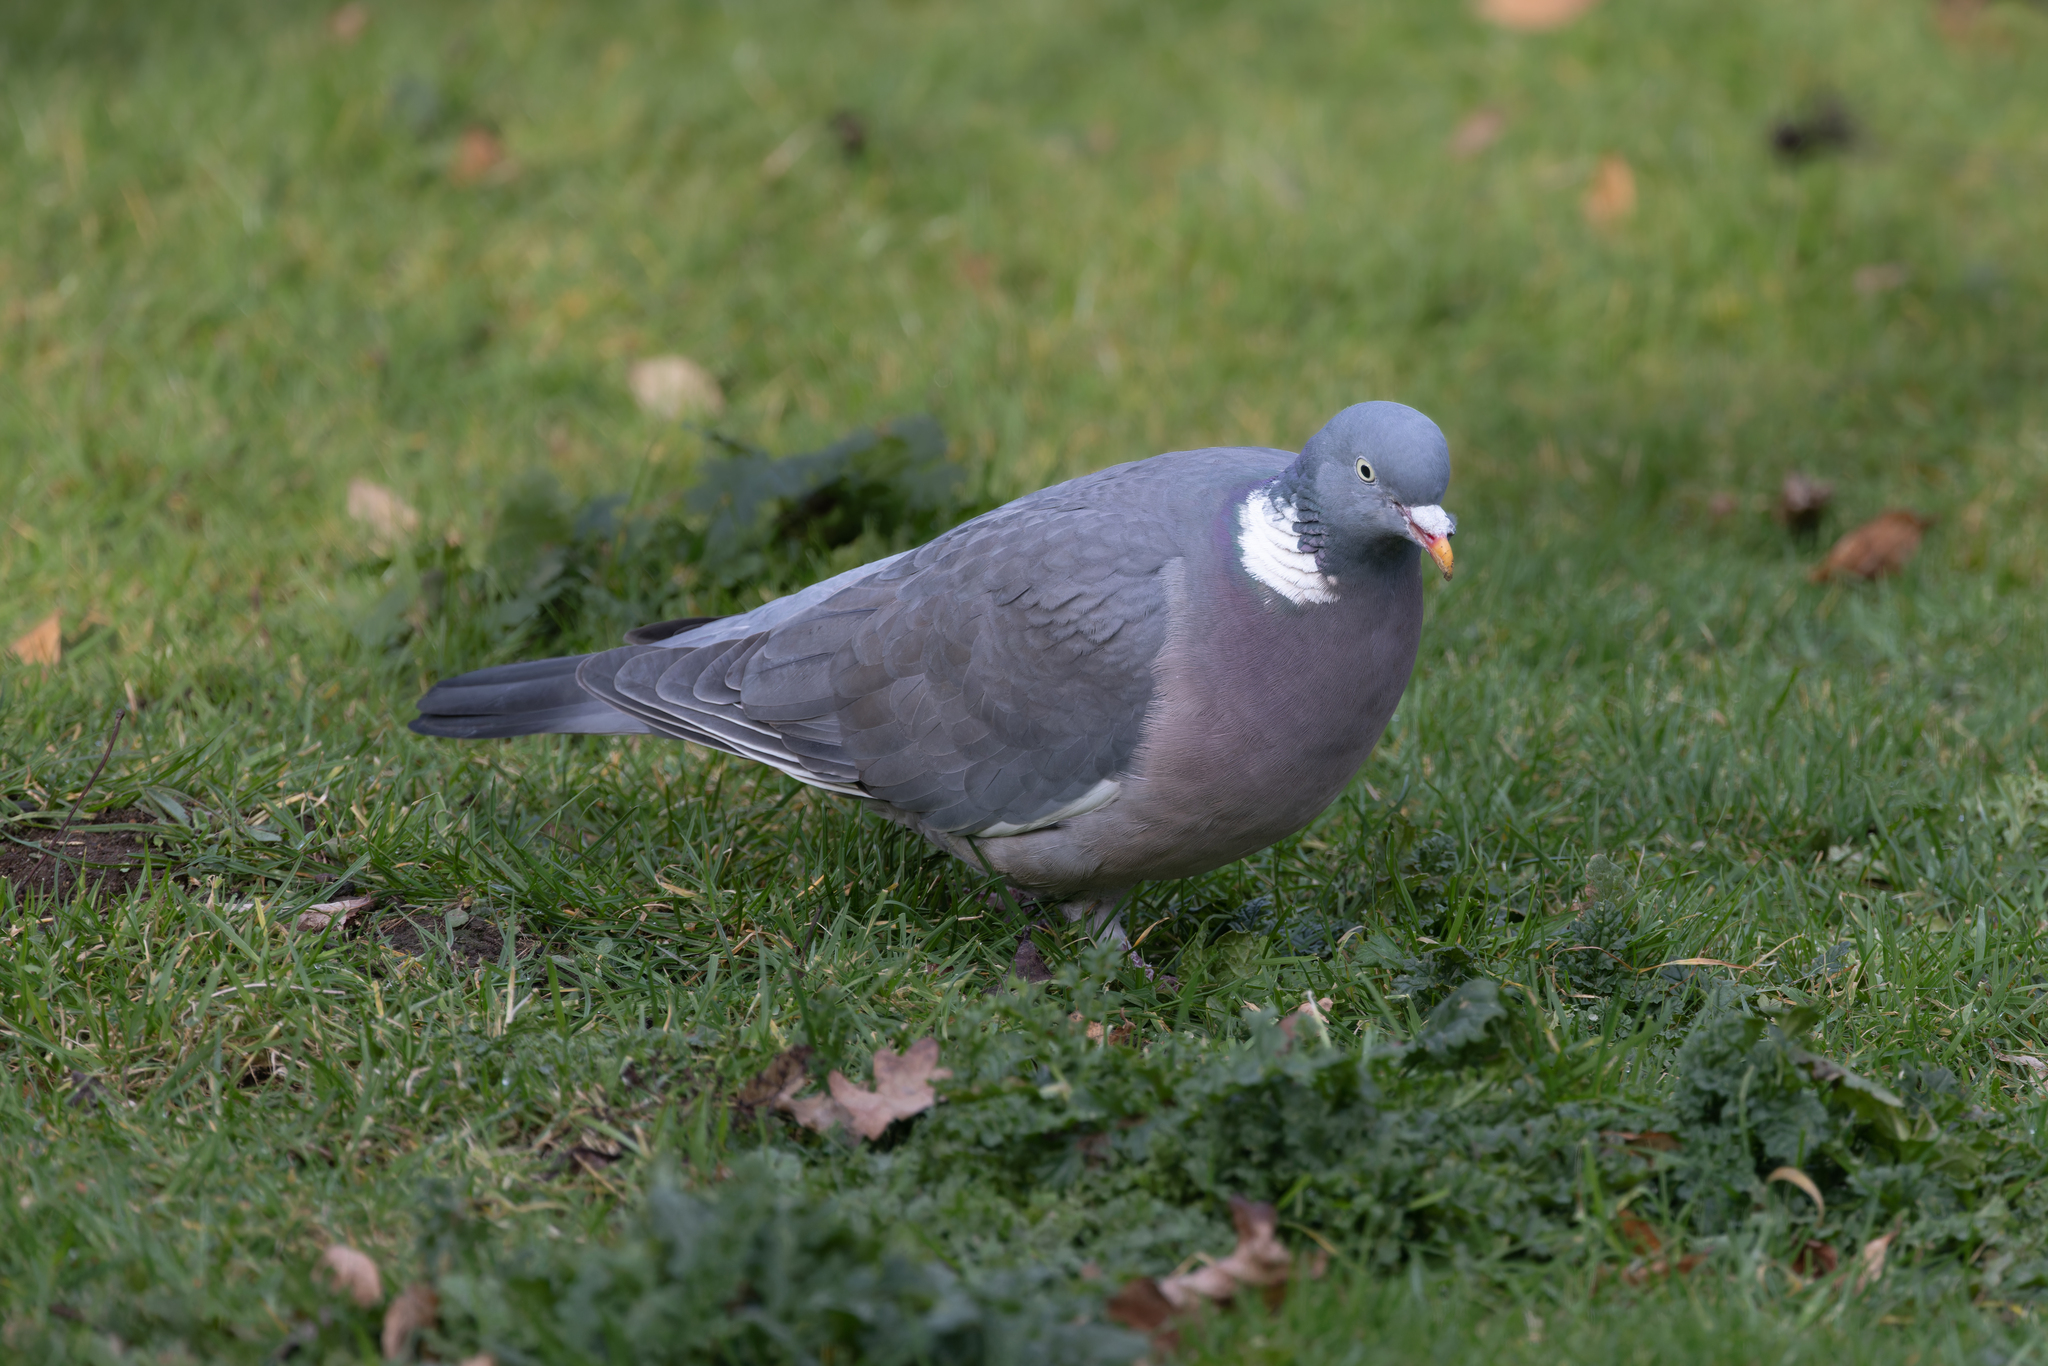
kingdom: Animalia
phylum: Chordata
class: Aves
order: Columbiformes
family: Columbidae
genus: Columba
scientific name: Columba palumbus
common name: Common wood pigeon
